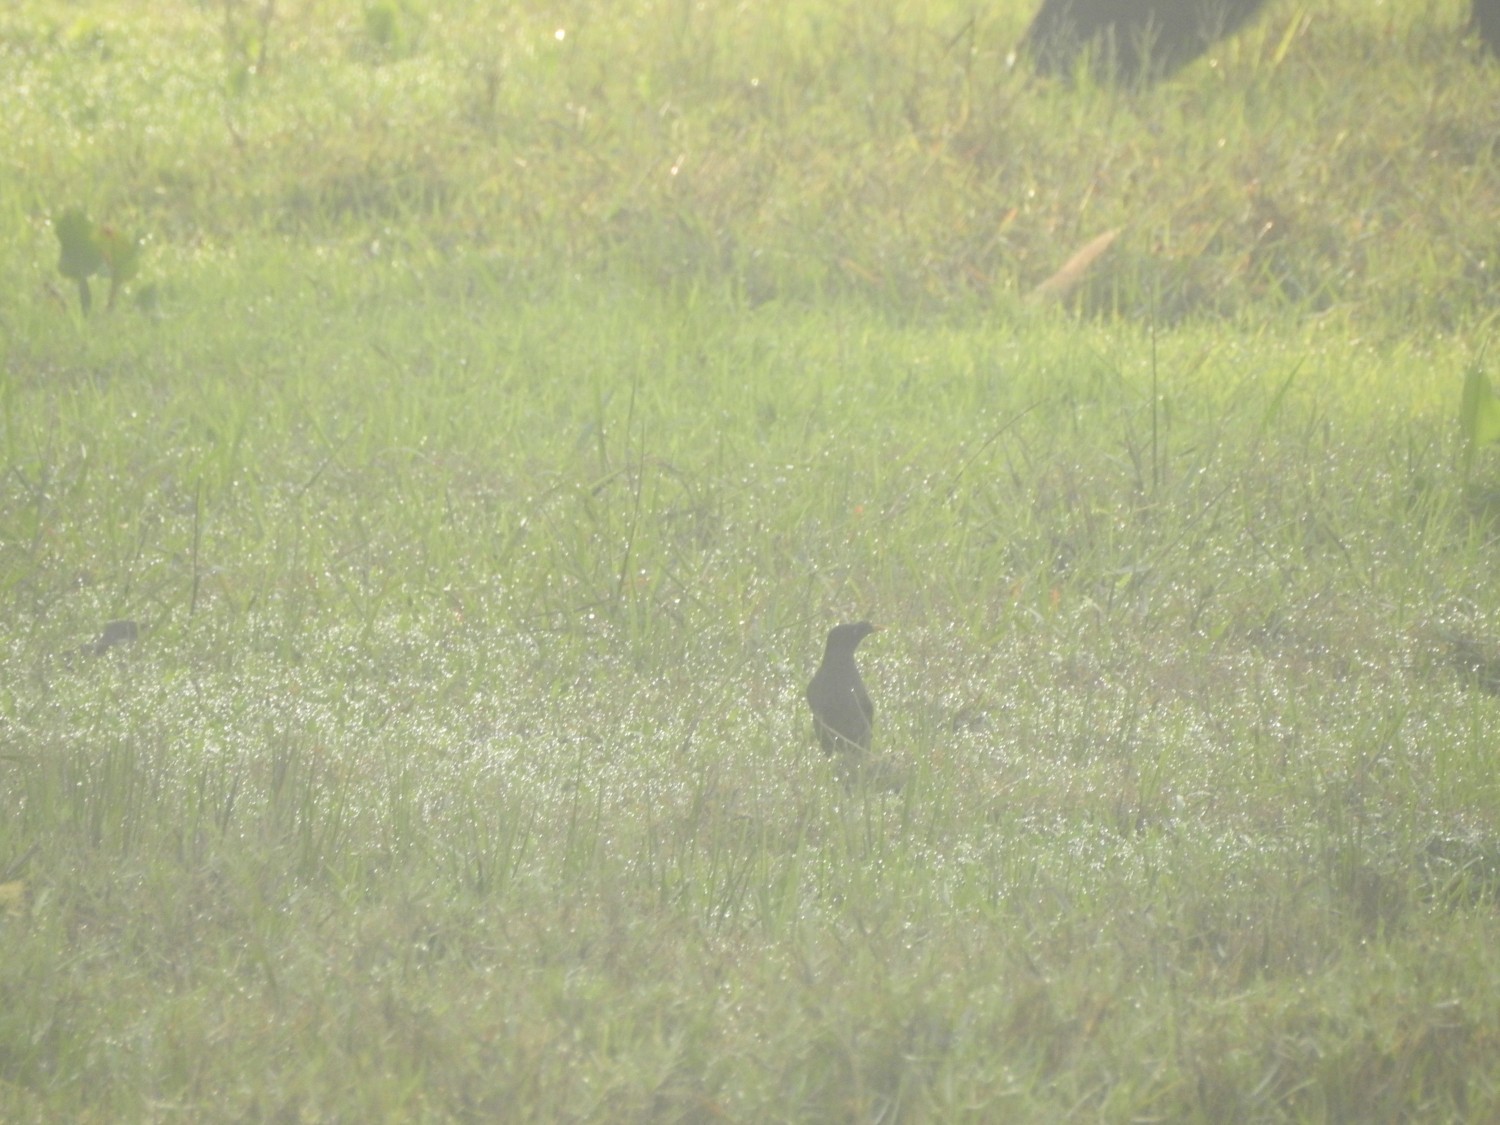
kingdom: Animalia
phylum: Chordata
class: Aves
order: Passeriformes
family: Sturnidae
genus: Acridotheres
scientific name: Acridotheres fuscus
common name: Jungle myna
